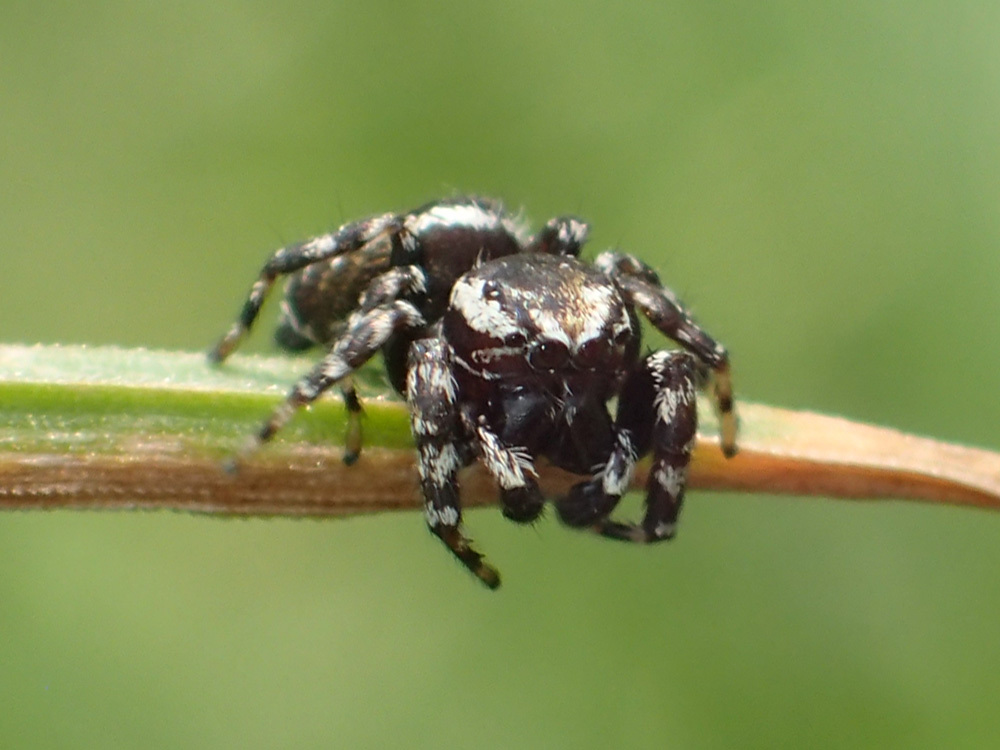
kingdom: Animalia
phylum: Arthropoda
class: Arachnida
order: Araneae
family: Salticidae
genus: Pelegrina
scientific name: Pelegrina galathea
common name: Jumping spiders
